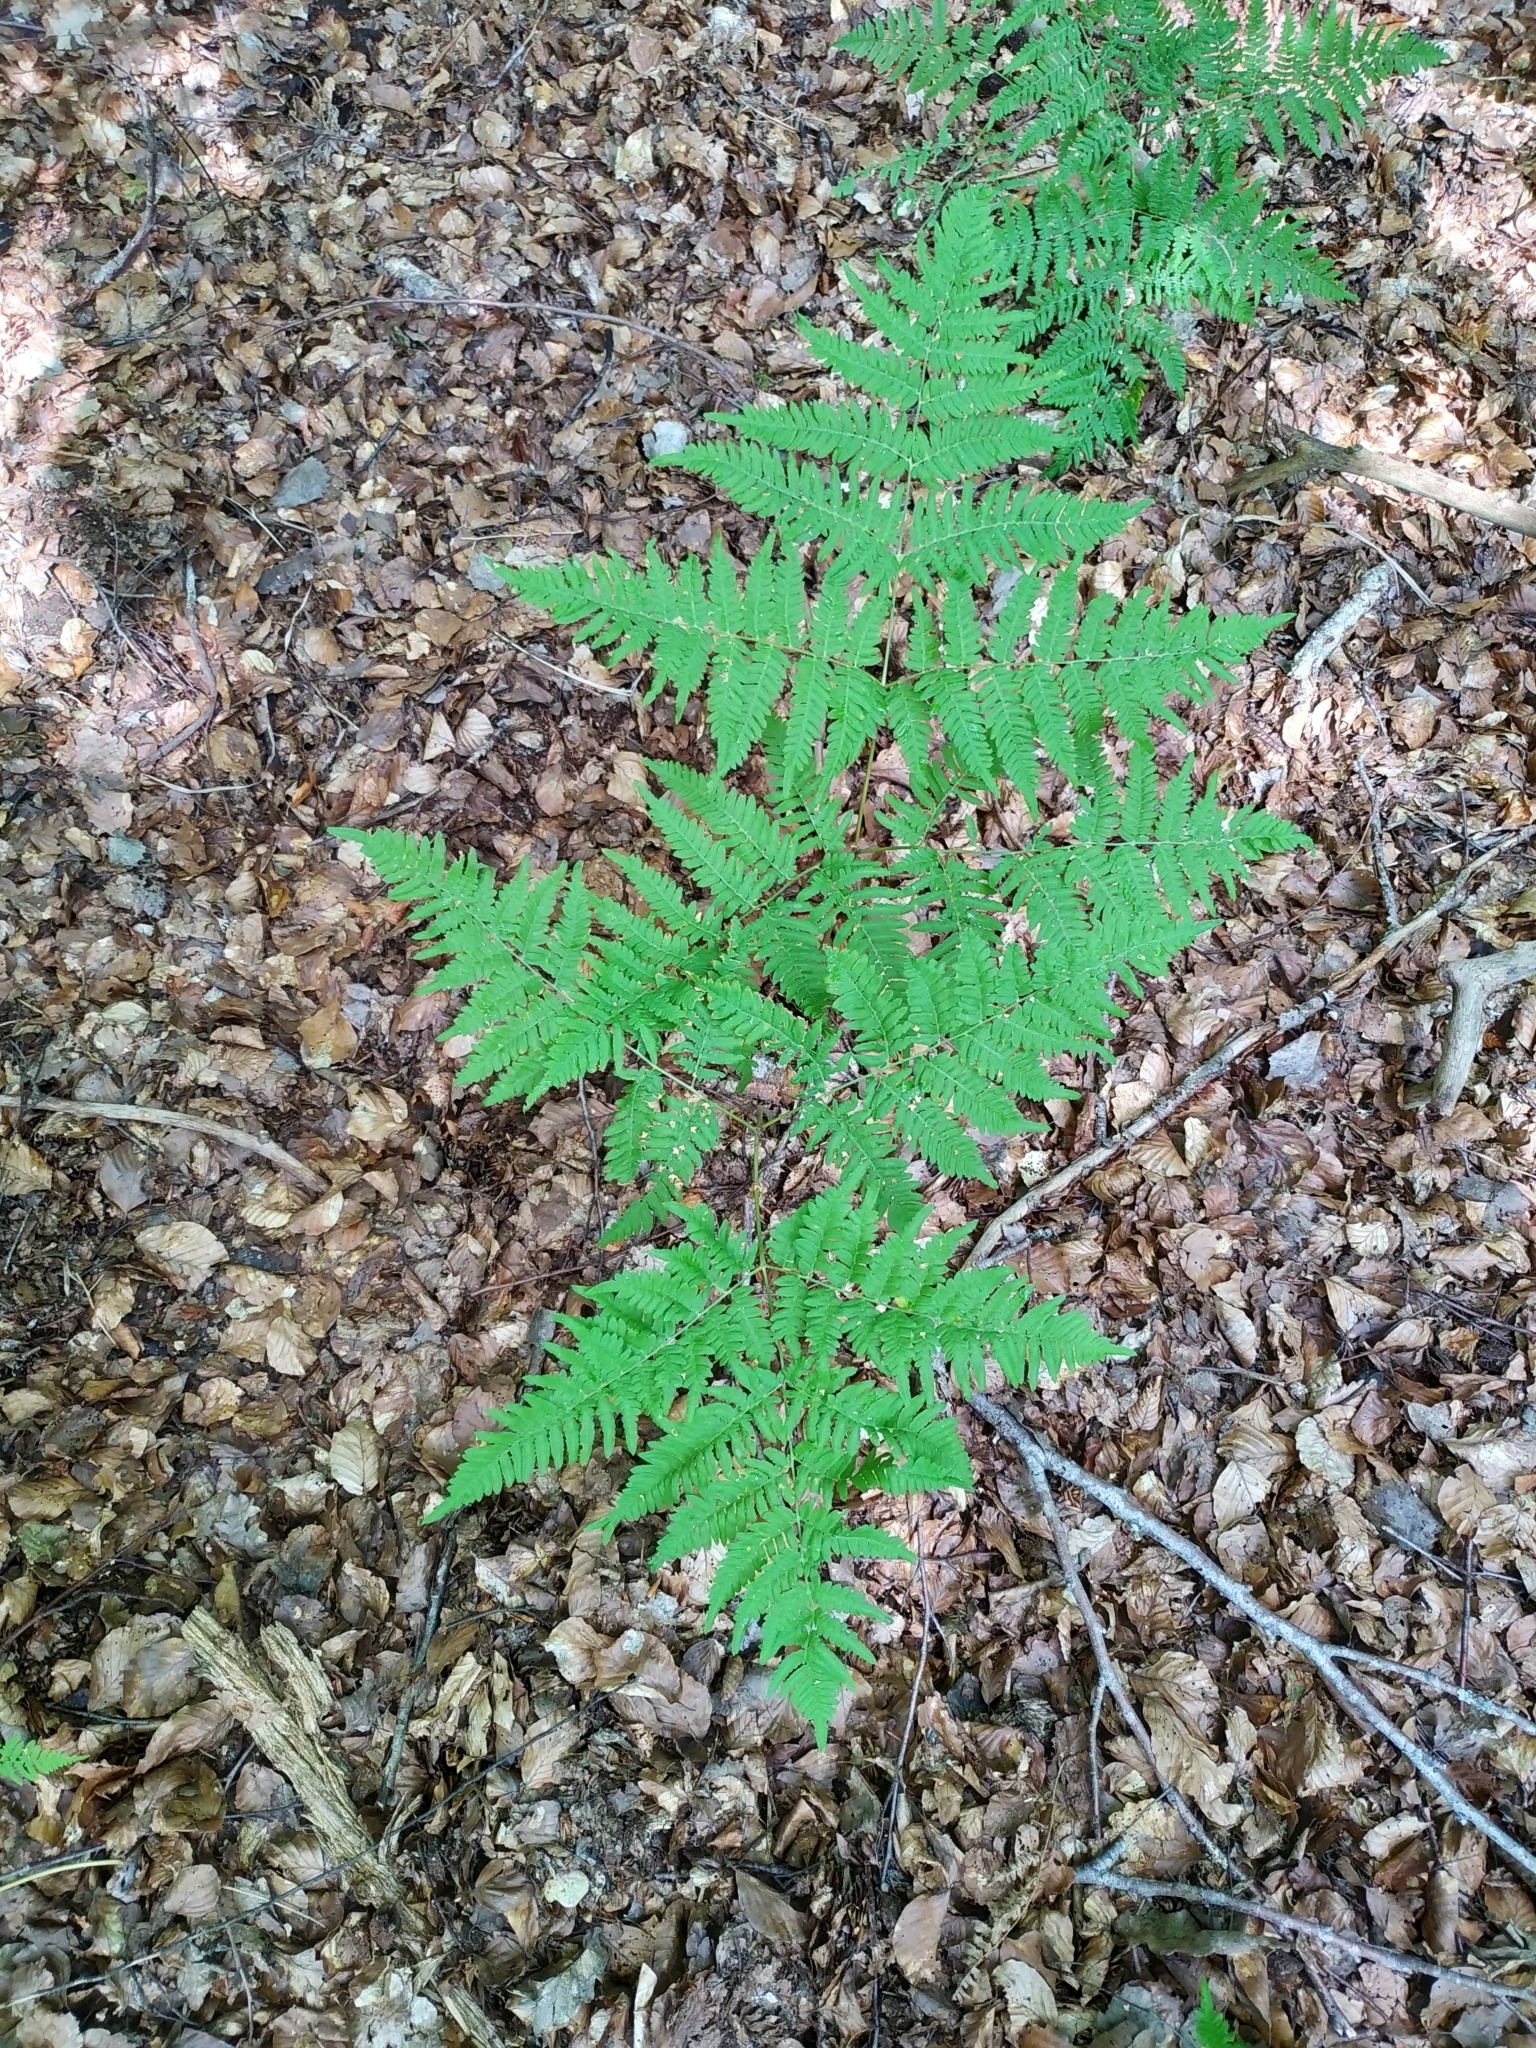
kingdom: Plantae
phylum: Tracheophyta
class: Polypodiopsida
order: Polypodiales
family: Dennstaedtiaceae
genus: Pteridium
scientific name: Pteridium aquilinum
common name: Bracken
